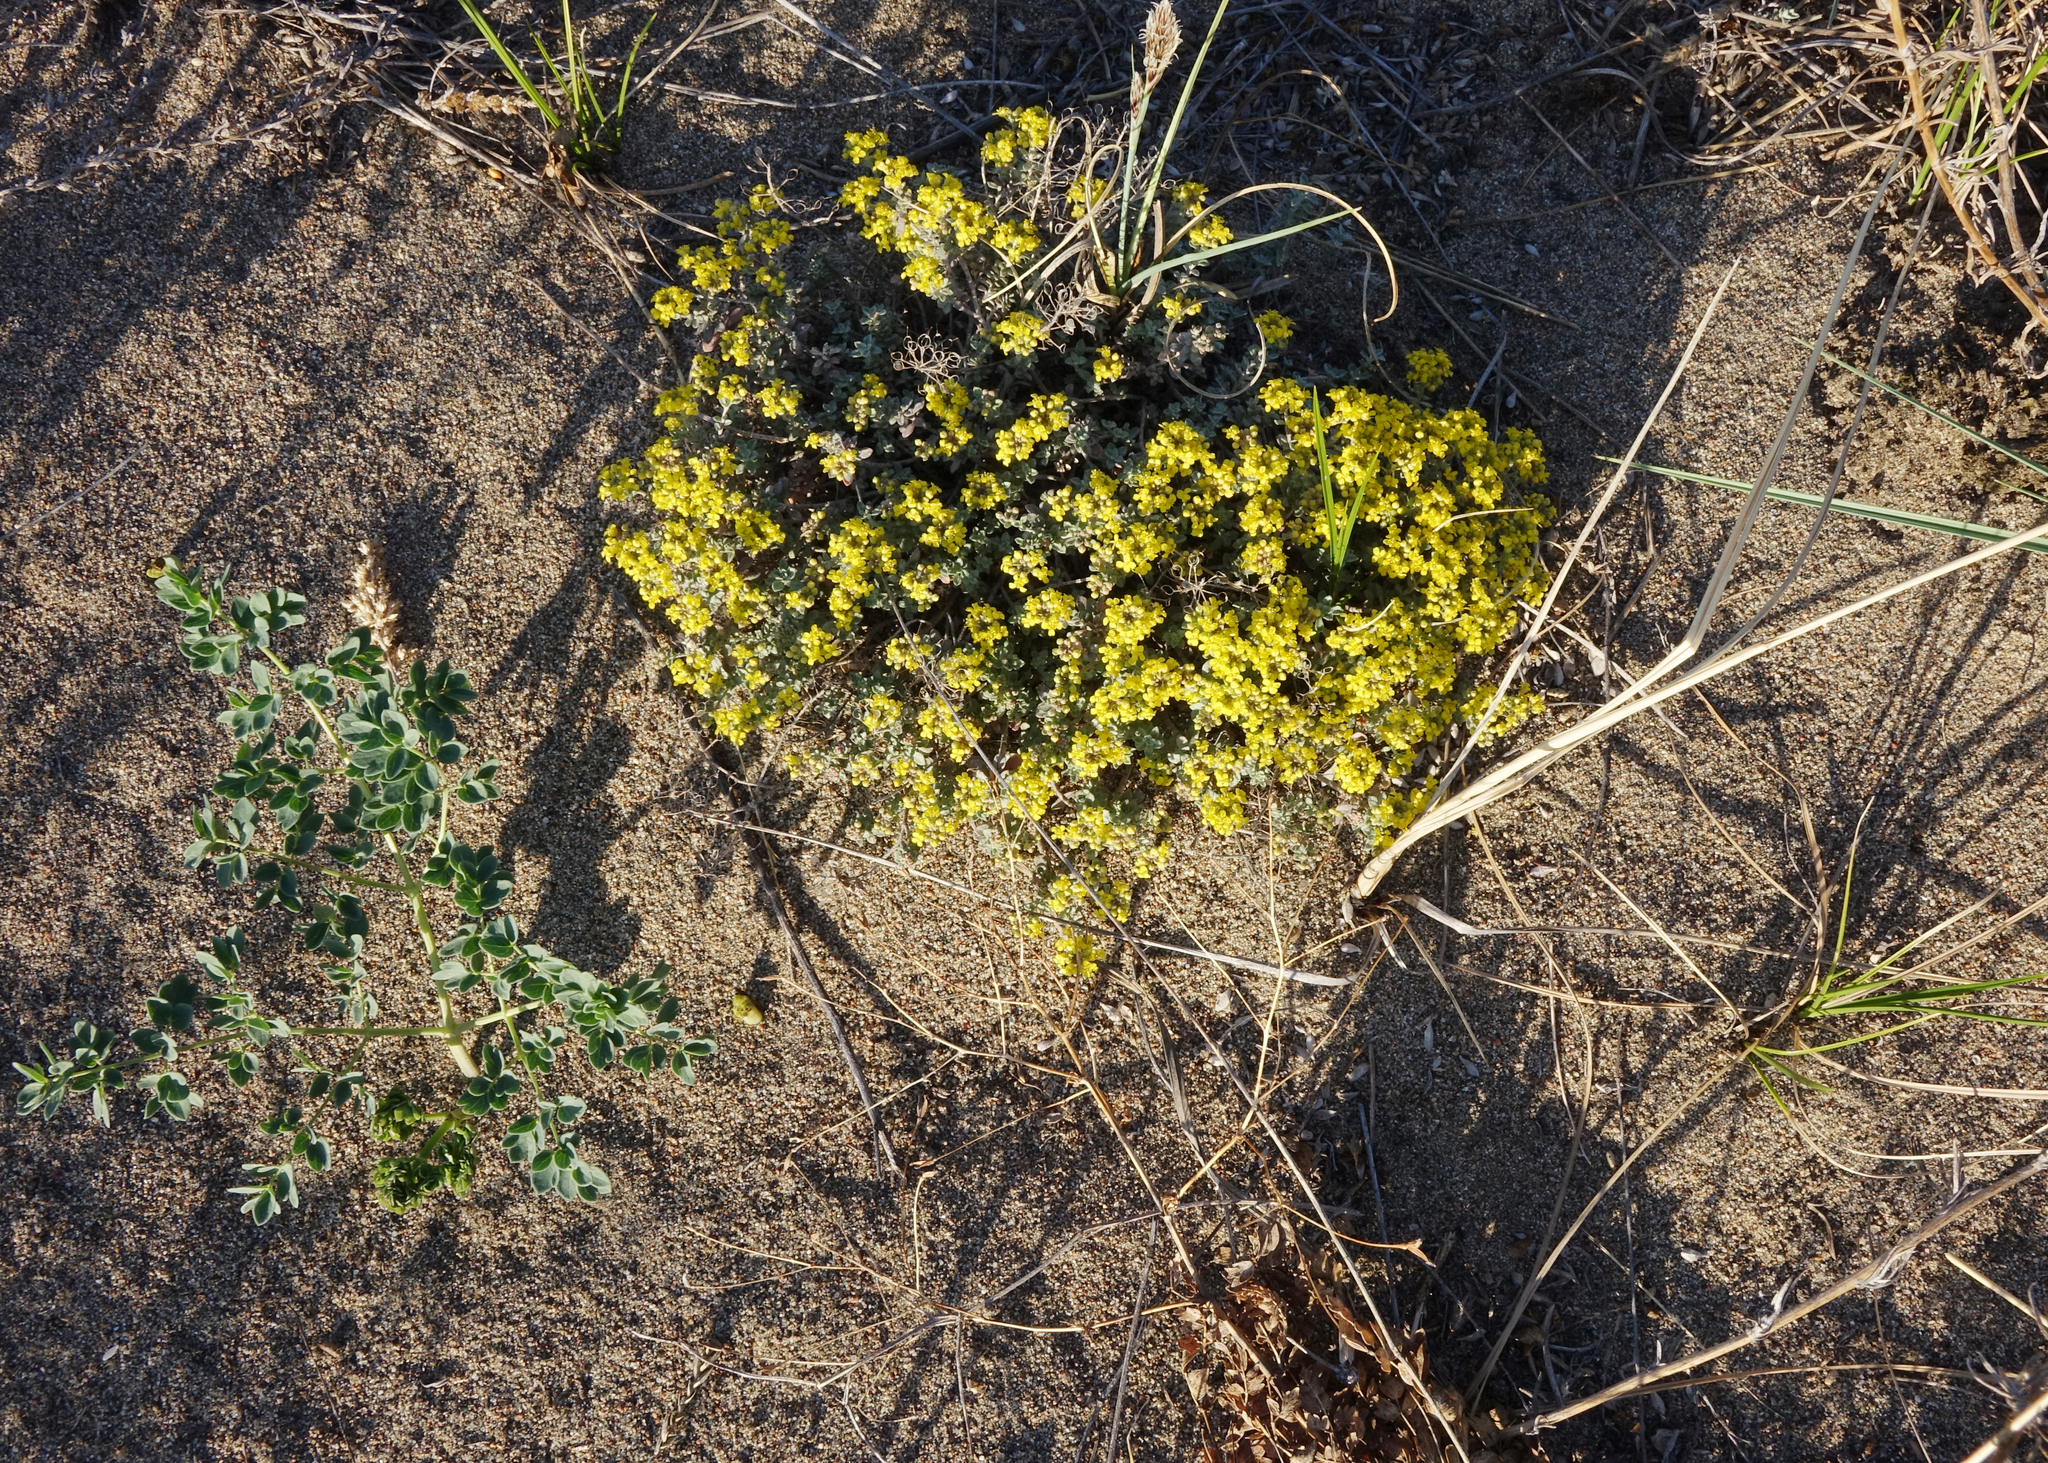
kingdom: Plantae
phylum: Tracheophyta
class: Magnoliopsida
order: Brassicales
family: Brassicaceae
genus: Odontarrhena
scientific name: Odontarrhena obovata
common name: American alyssum
